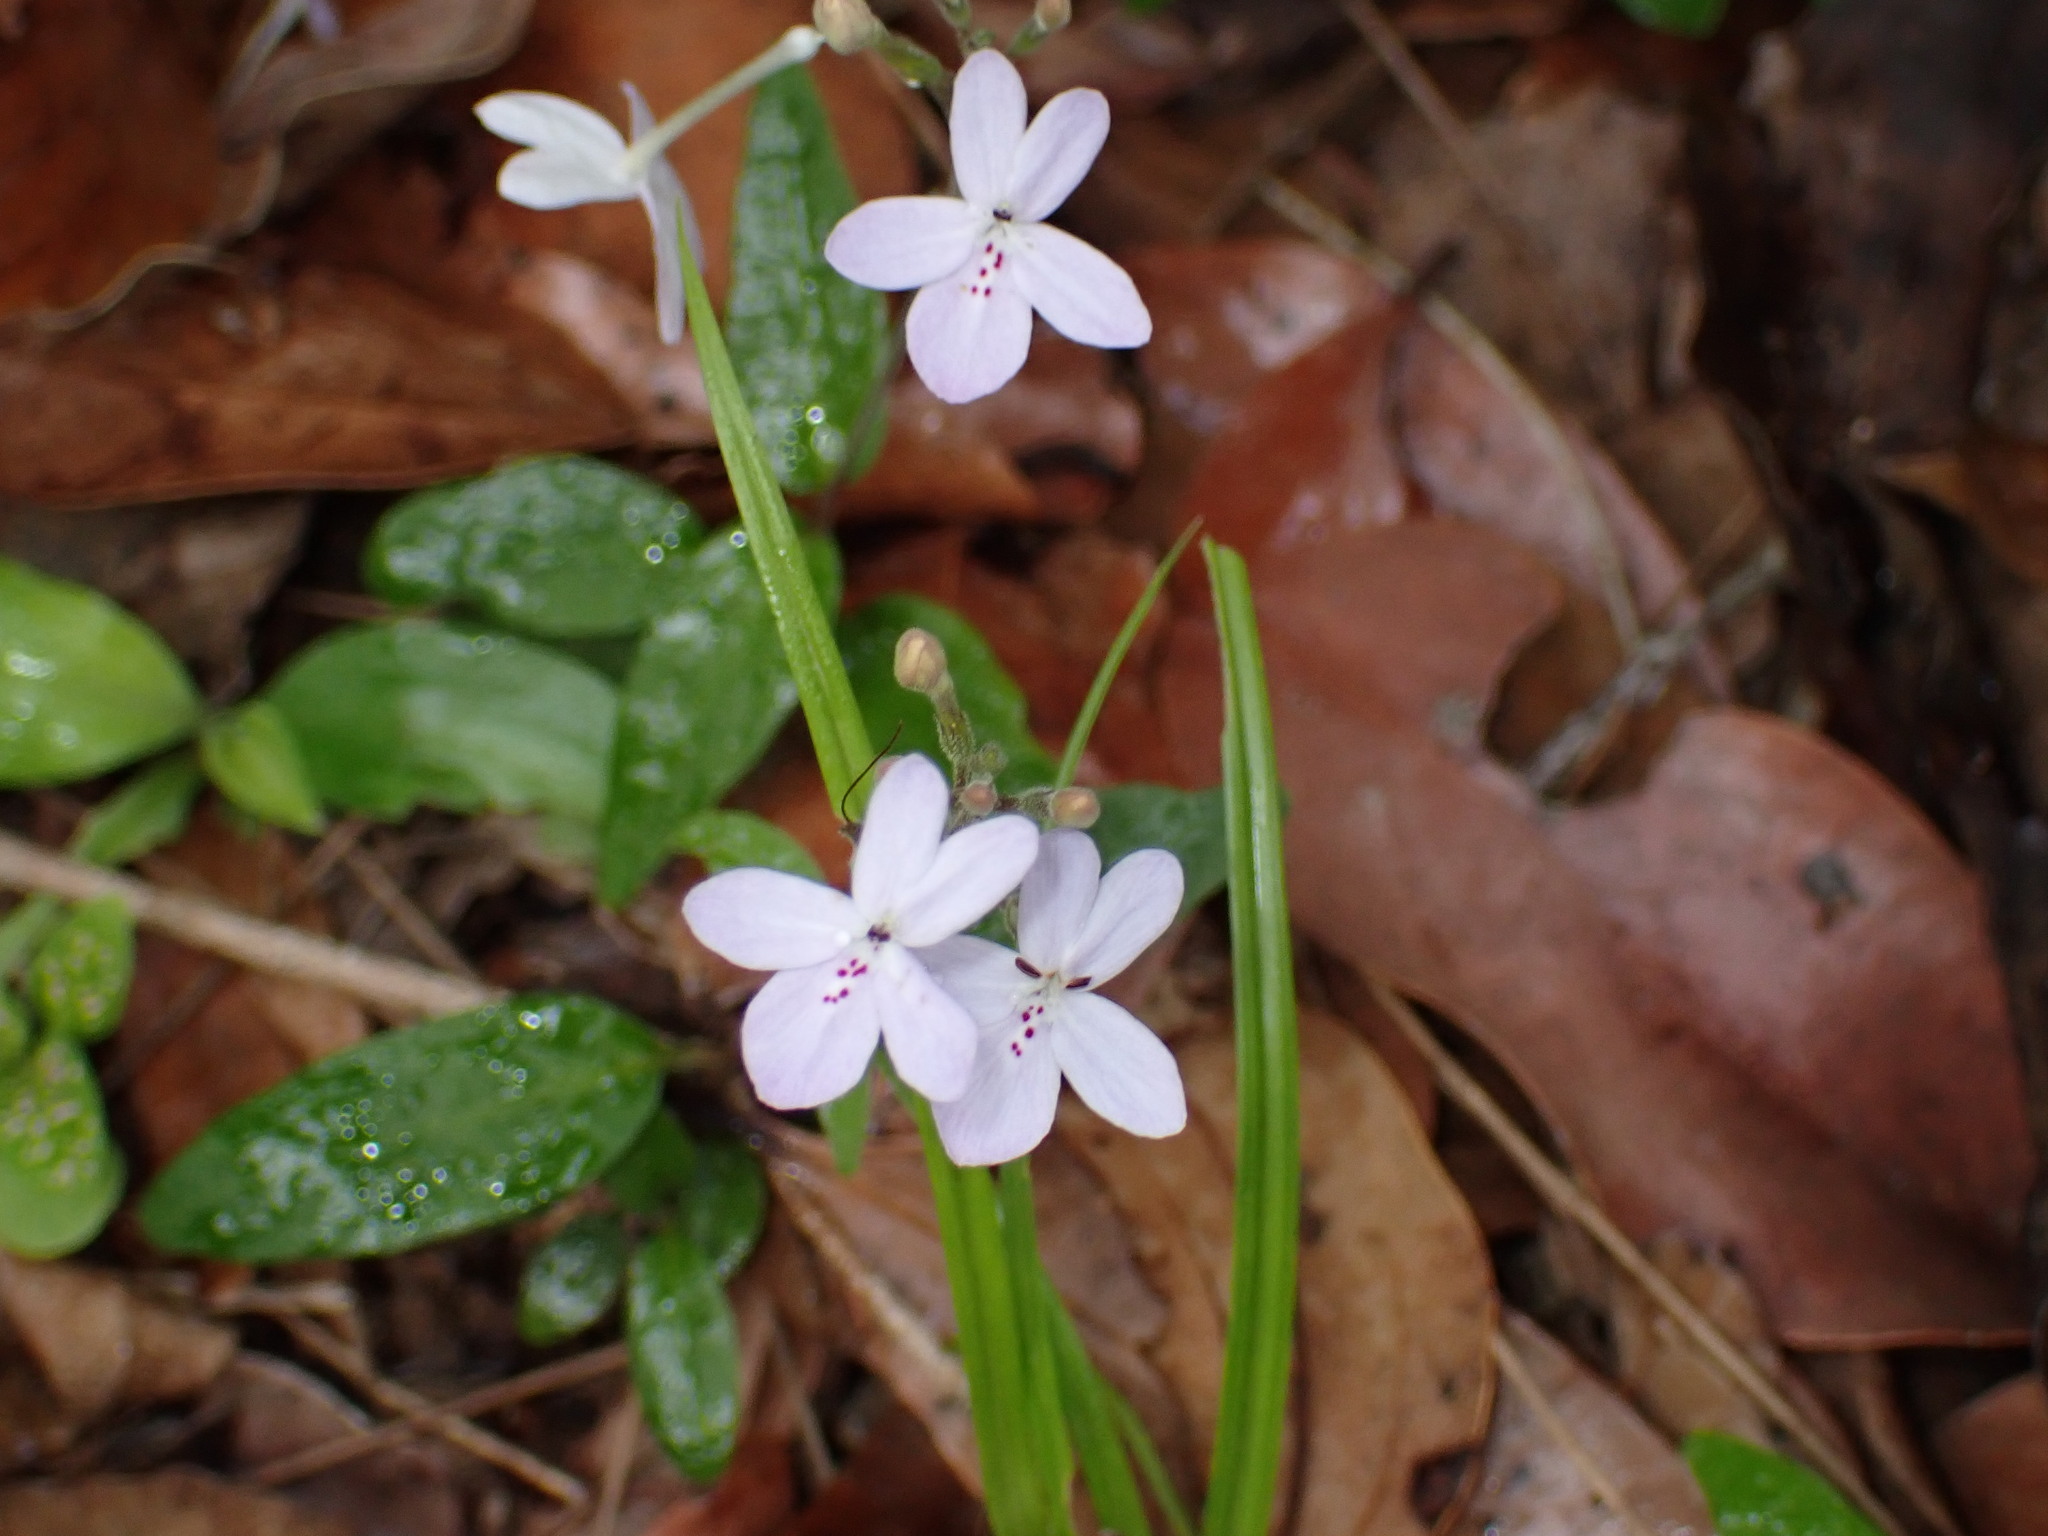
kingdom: Plantae
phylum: Tracheophyta
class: Magnoliopsida
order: Lamiales
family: Acanthaceae
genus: Pseuderanthemum
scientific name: Pseuderanthemum variabile
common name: Night and afternoon
